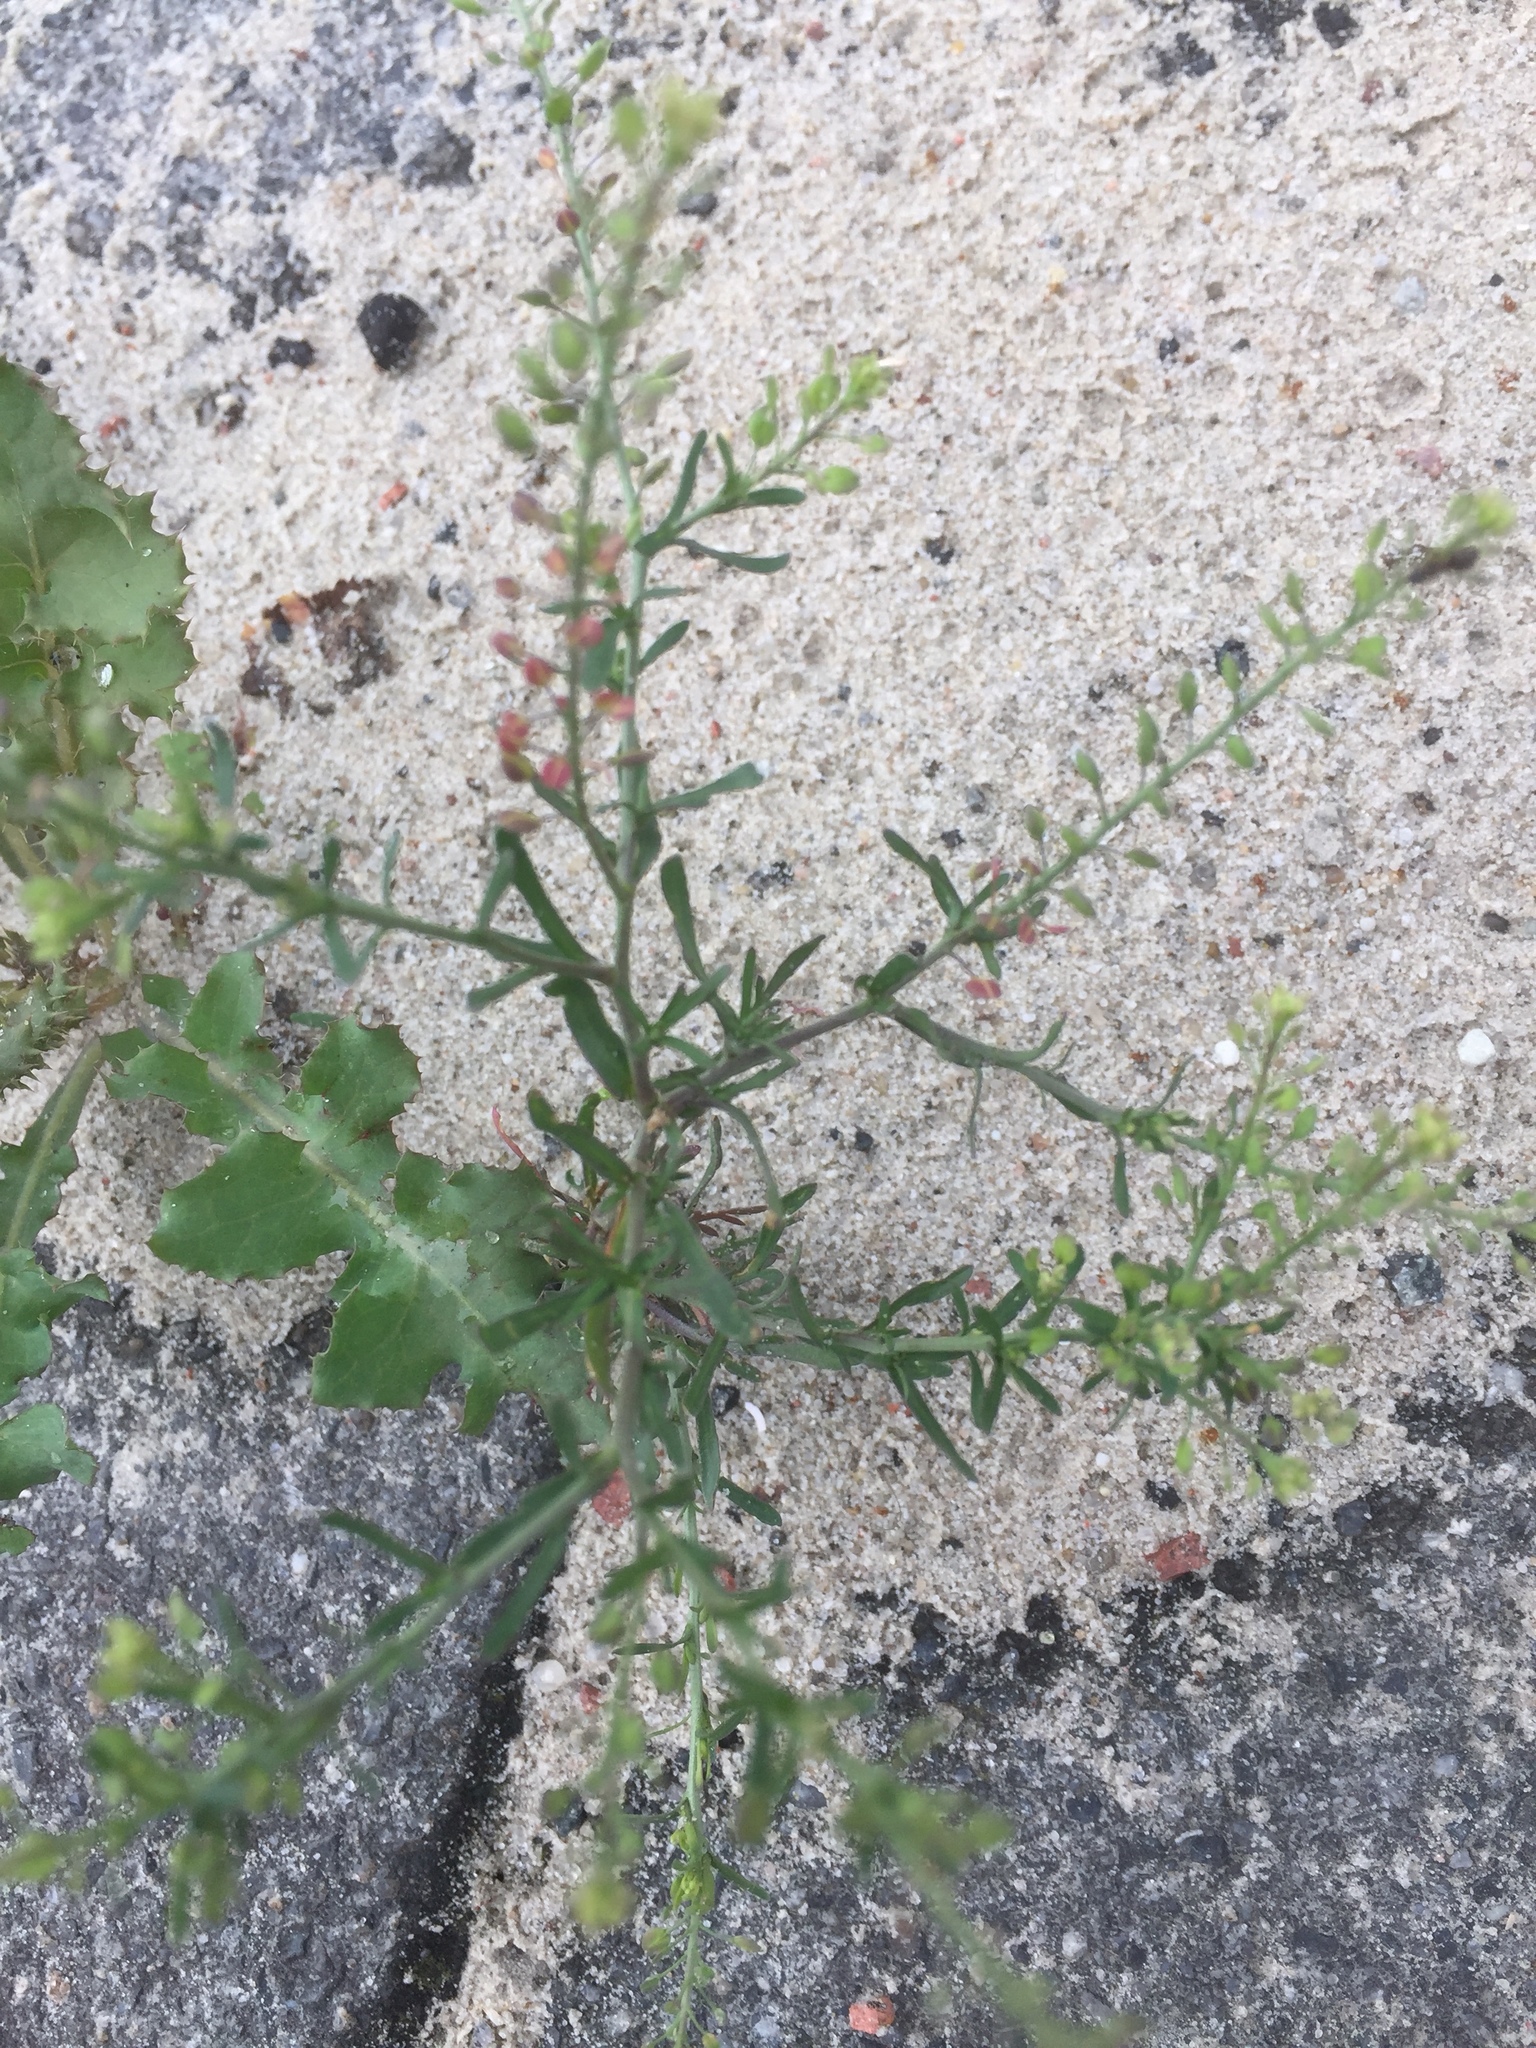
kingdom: Plantae
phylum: Tracheophyta
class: Magnoliopsida
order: Brassicales
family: Brassicaceae
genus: Lepidium
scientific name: Lepidium ruderale
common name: Narrow-leaved pepperwort
